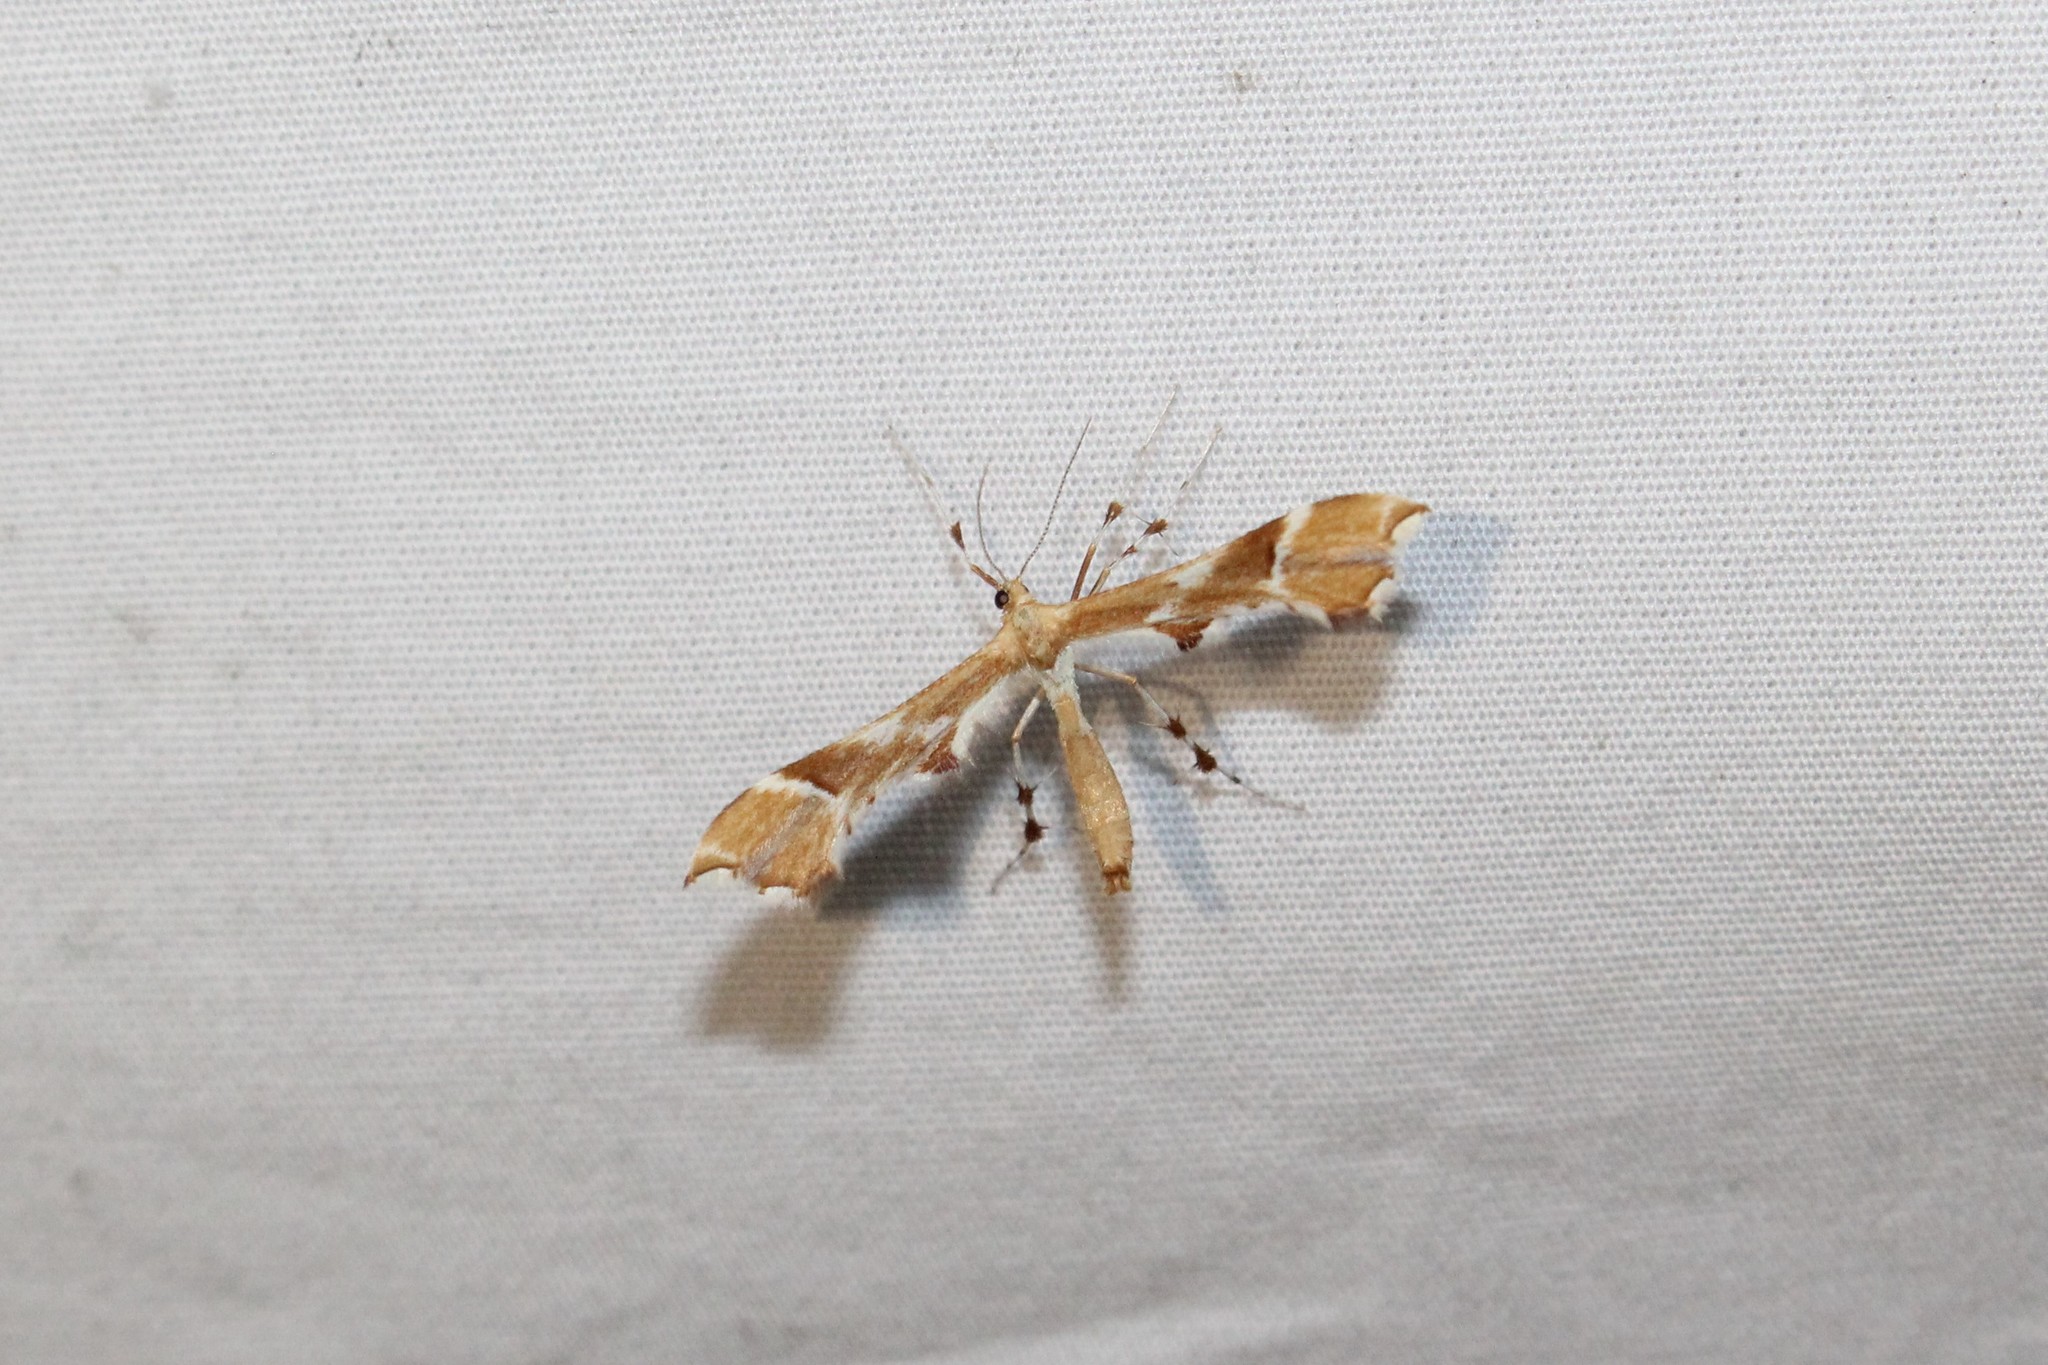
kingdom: Animalia
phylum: Arthropoda
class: Insecta
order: Lepidoptera
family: Pterophoridae
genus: Cnaemidophorus
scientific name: Cnaemidophorus rhododactyla
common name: Rose plume
